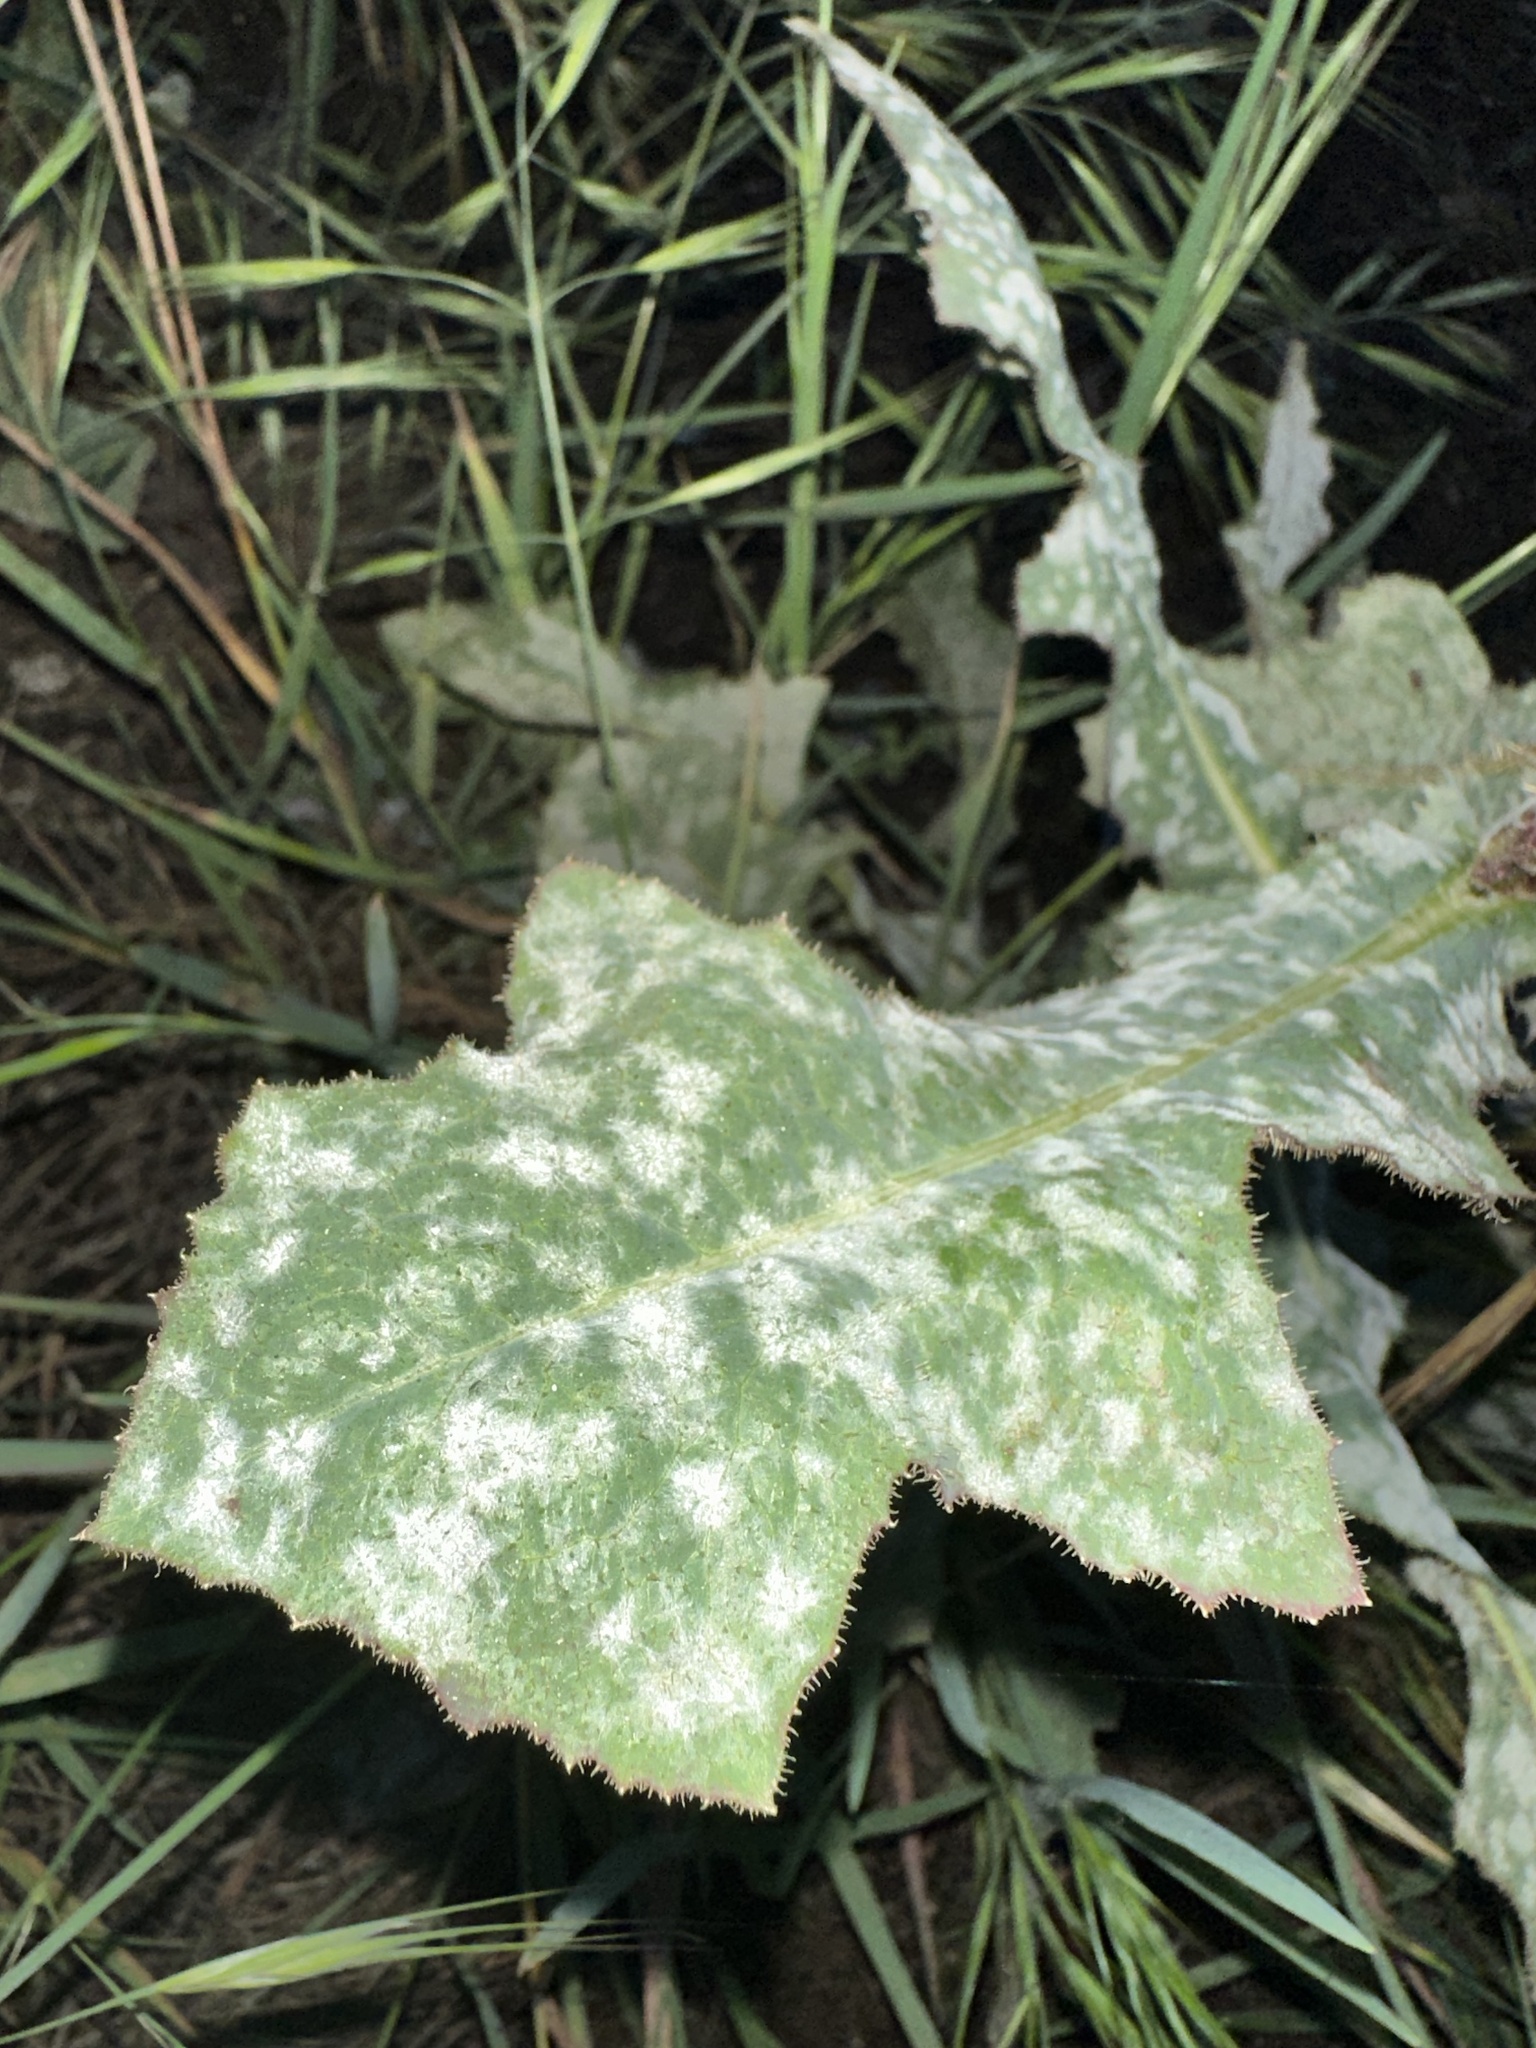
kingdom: Fungi
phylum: Ascomycota
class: Leotiomycetes
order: Helotiales
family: Erysiphaceae
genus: Golovinomyces
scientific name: Golovinomyces bolayi
